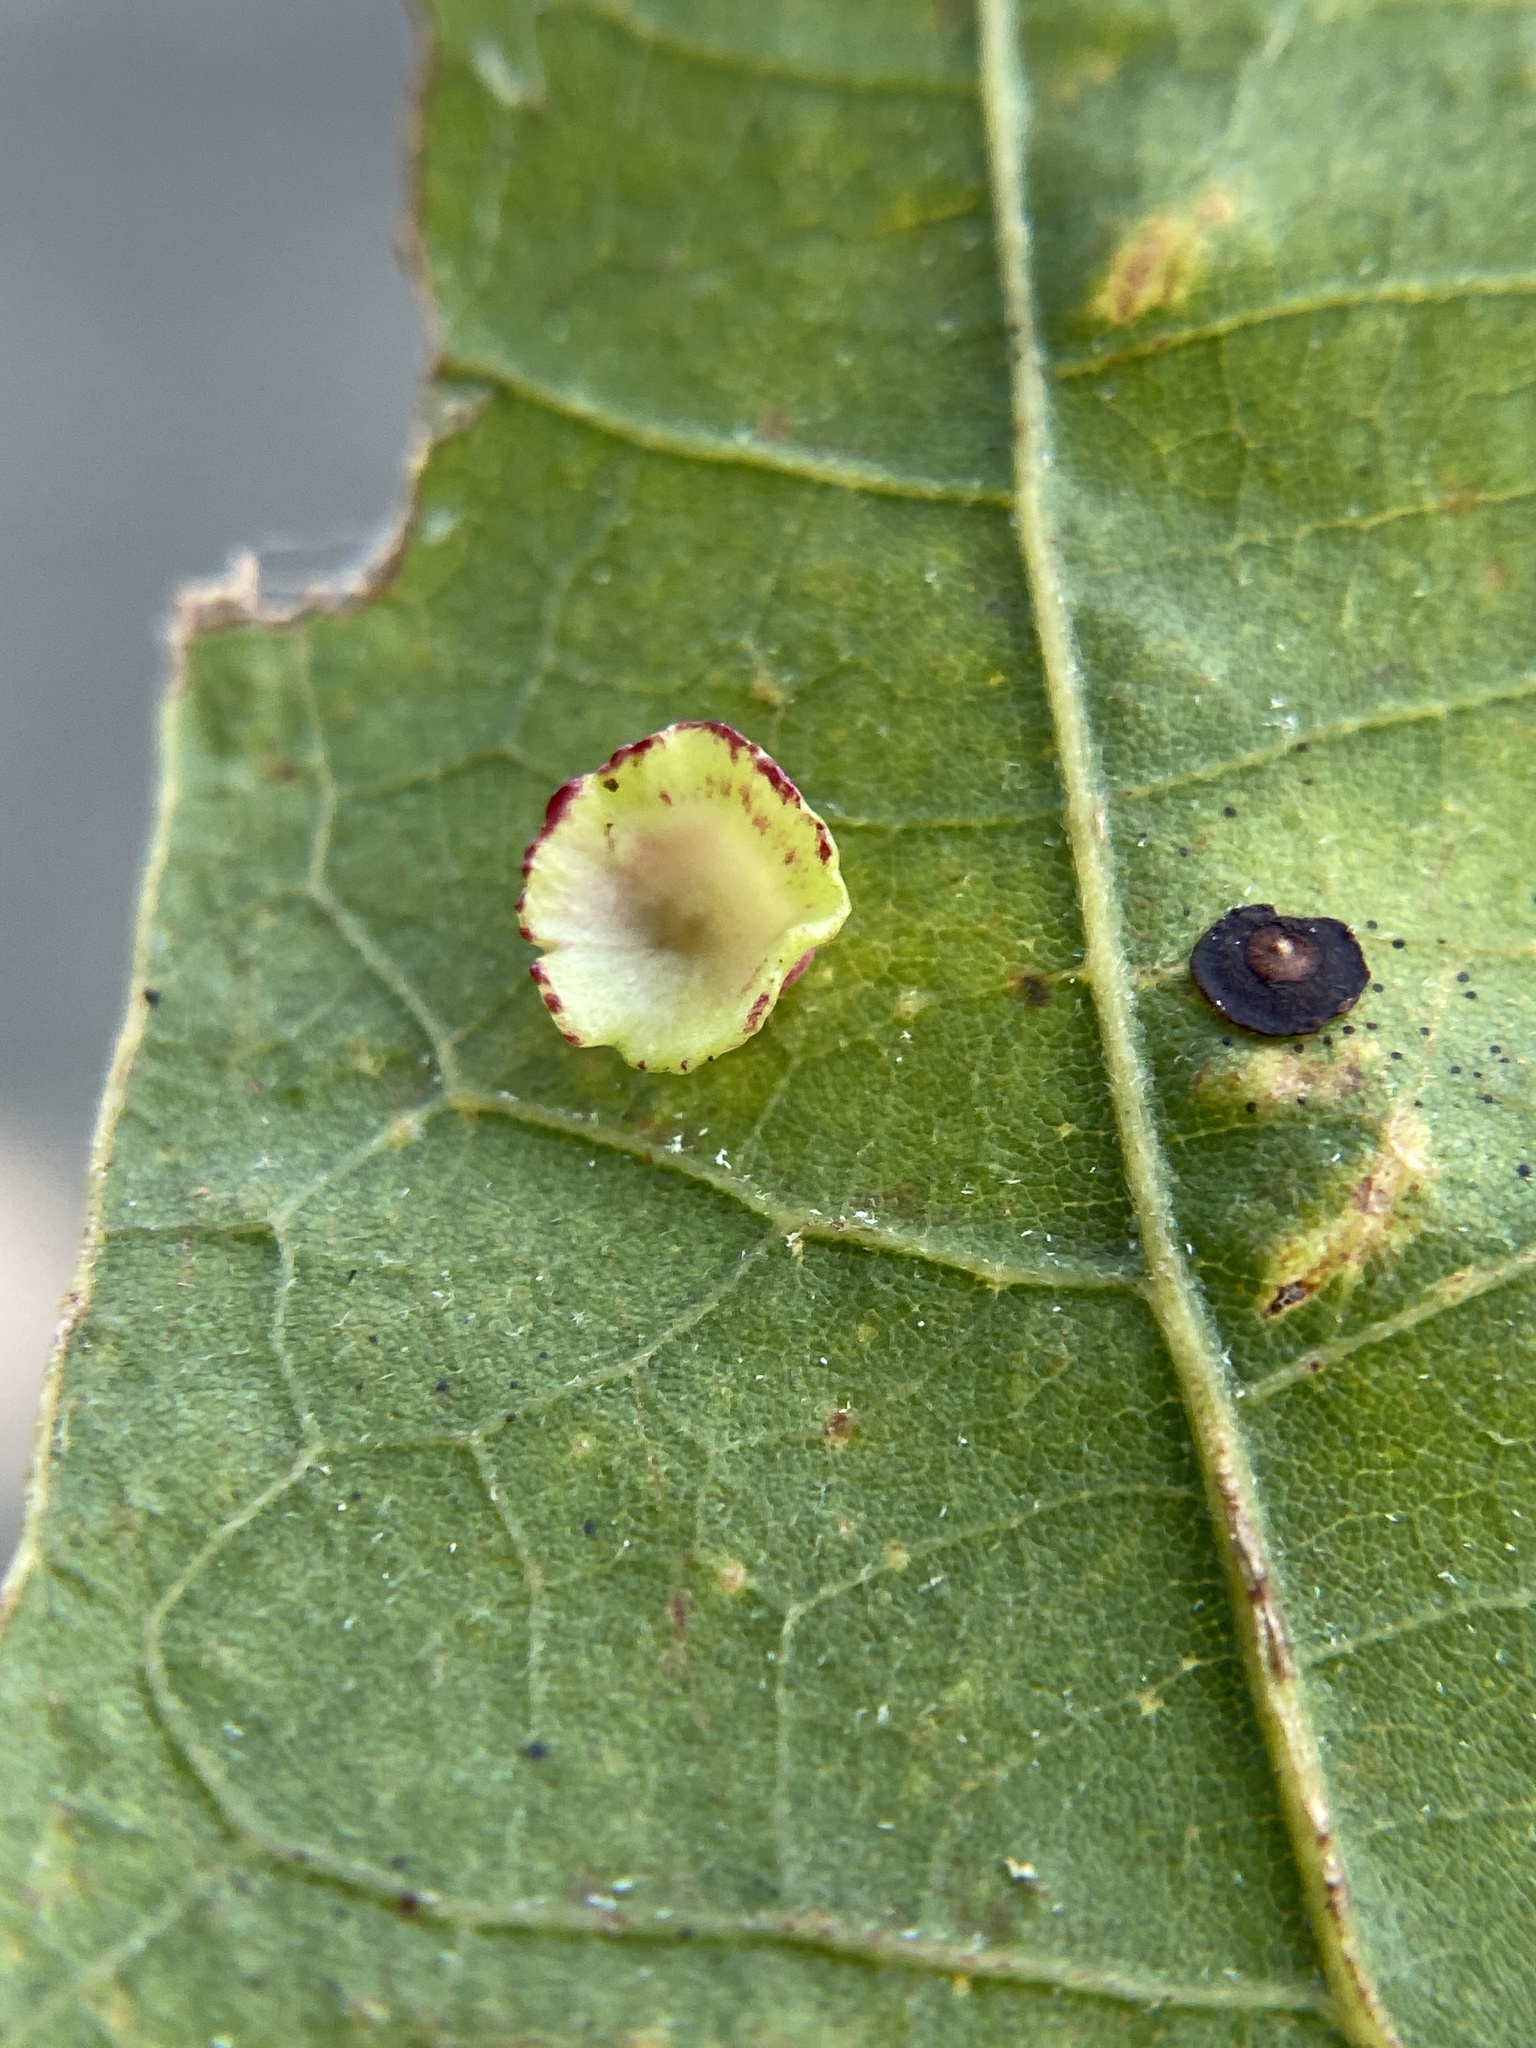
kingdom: Animalia
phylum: Arthropoda
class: Insecta
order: Hymenoptera
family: Cynipidae
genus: Phylloteras
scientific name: Phylloteras
